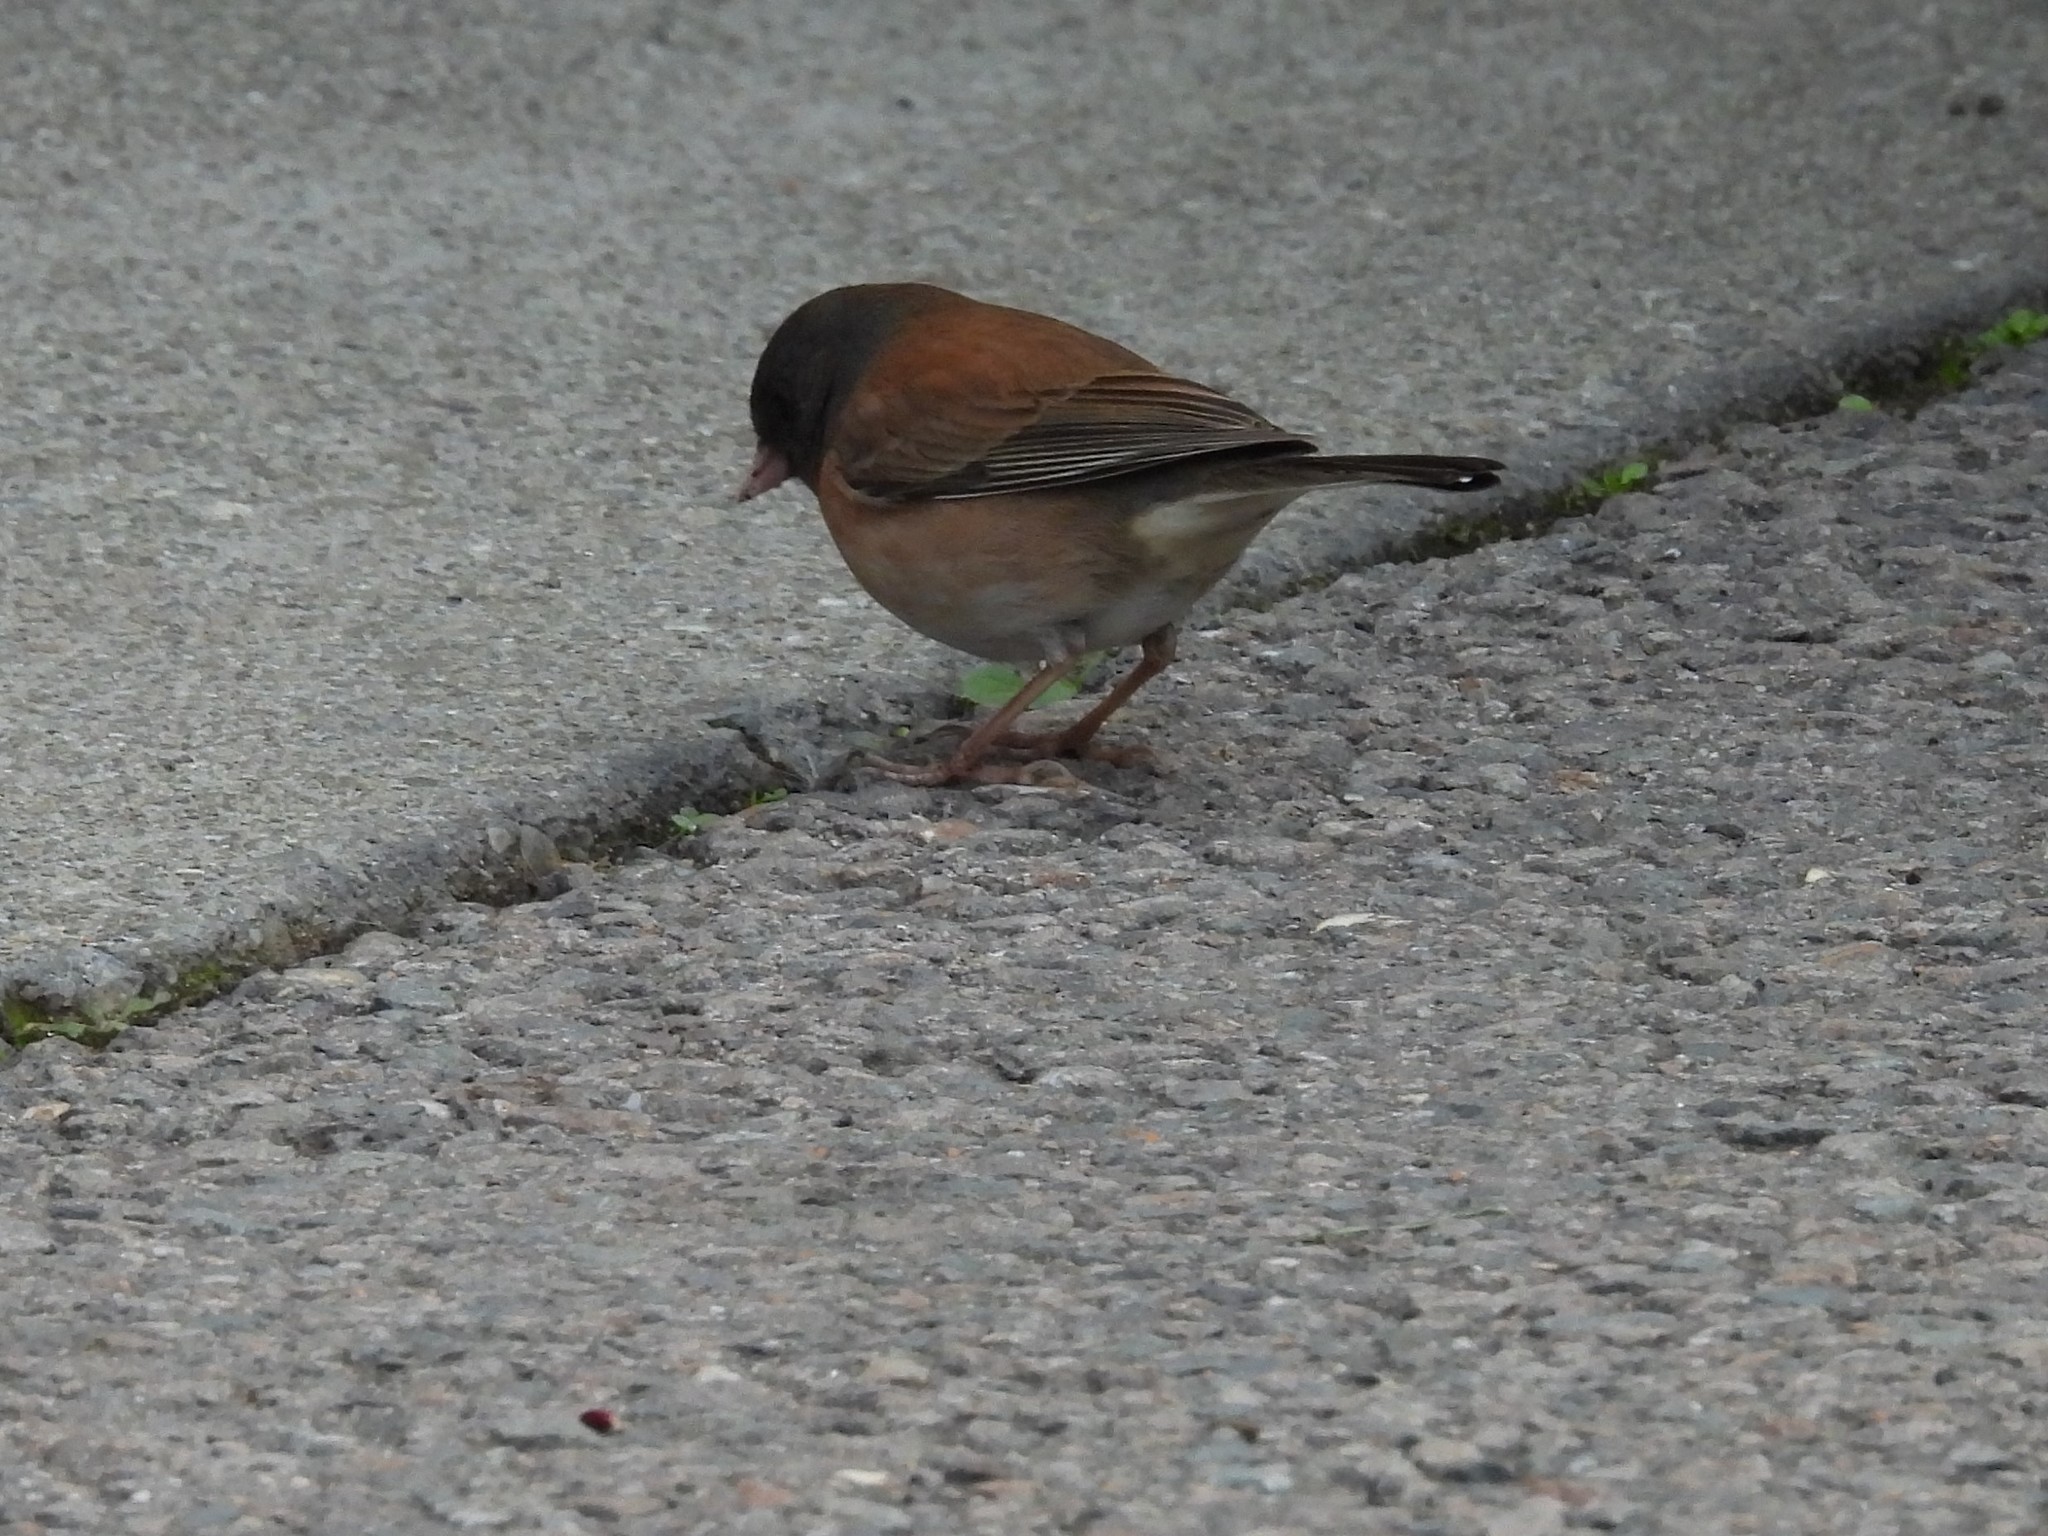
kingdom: Animalia
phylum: Chordata
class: Aves
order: Passeriformes
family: Passerellidae
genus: Junco
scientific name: Junco hyemalis
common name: Dark-eyed junco
